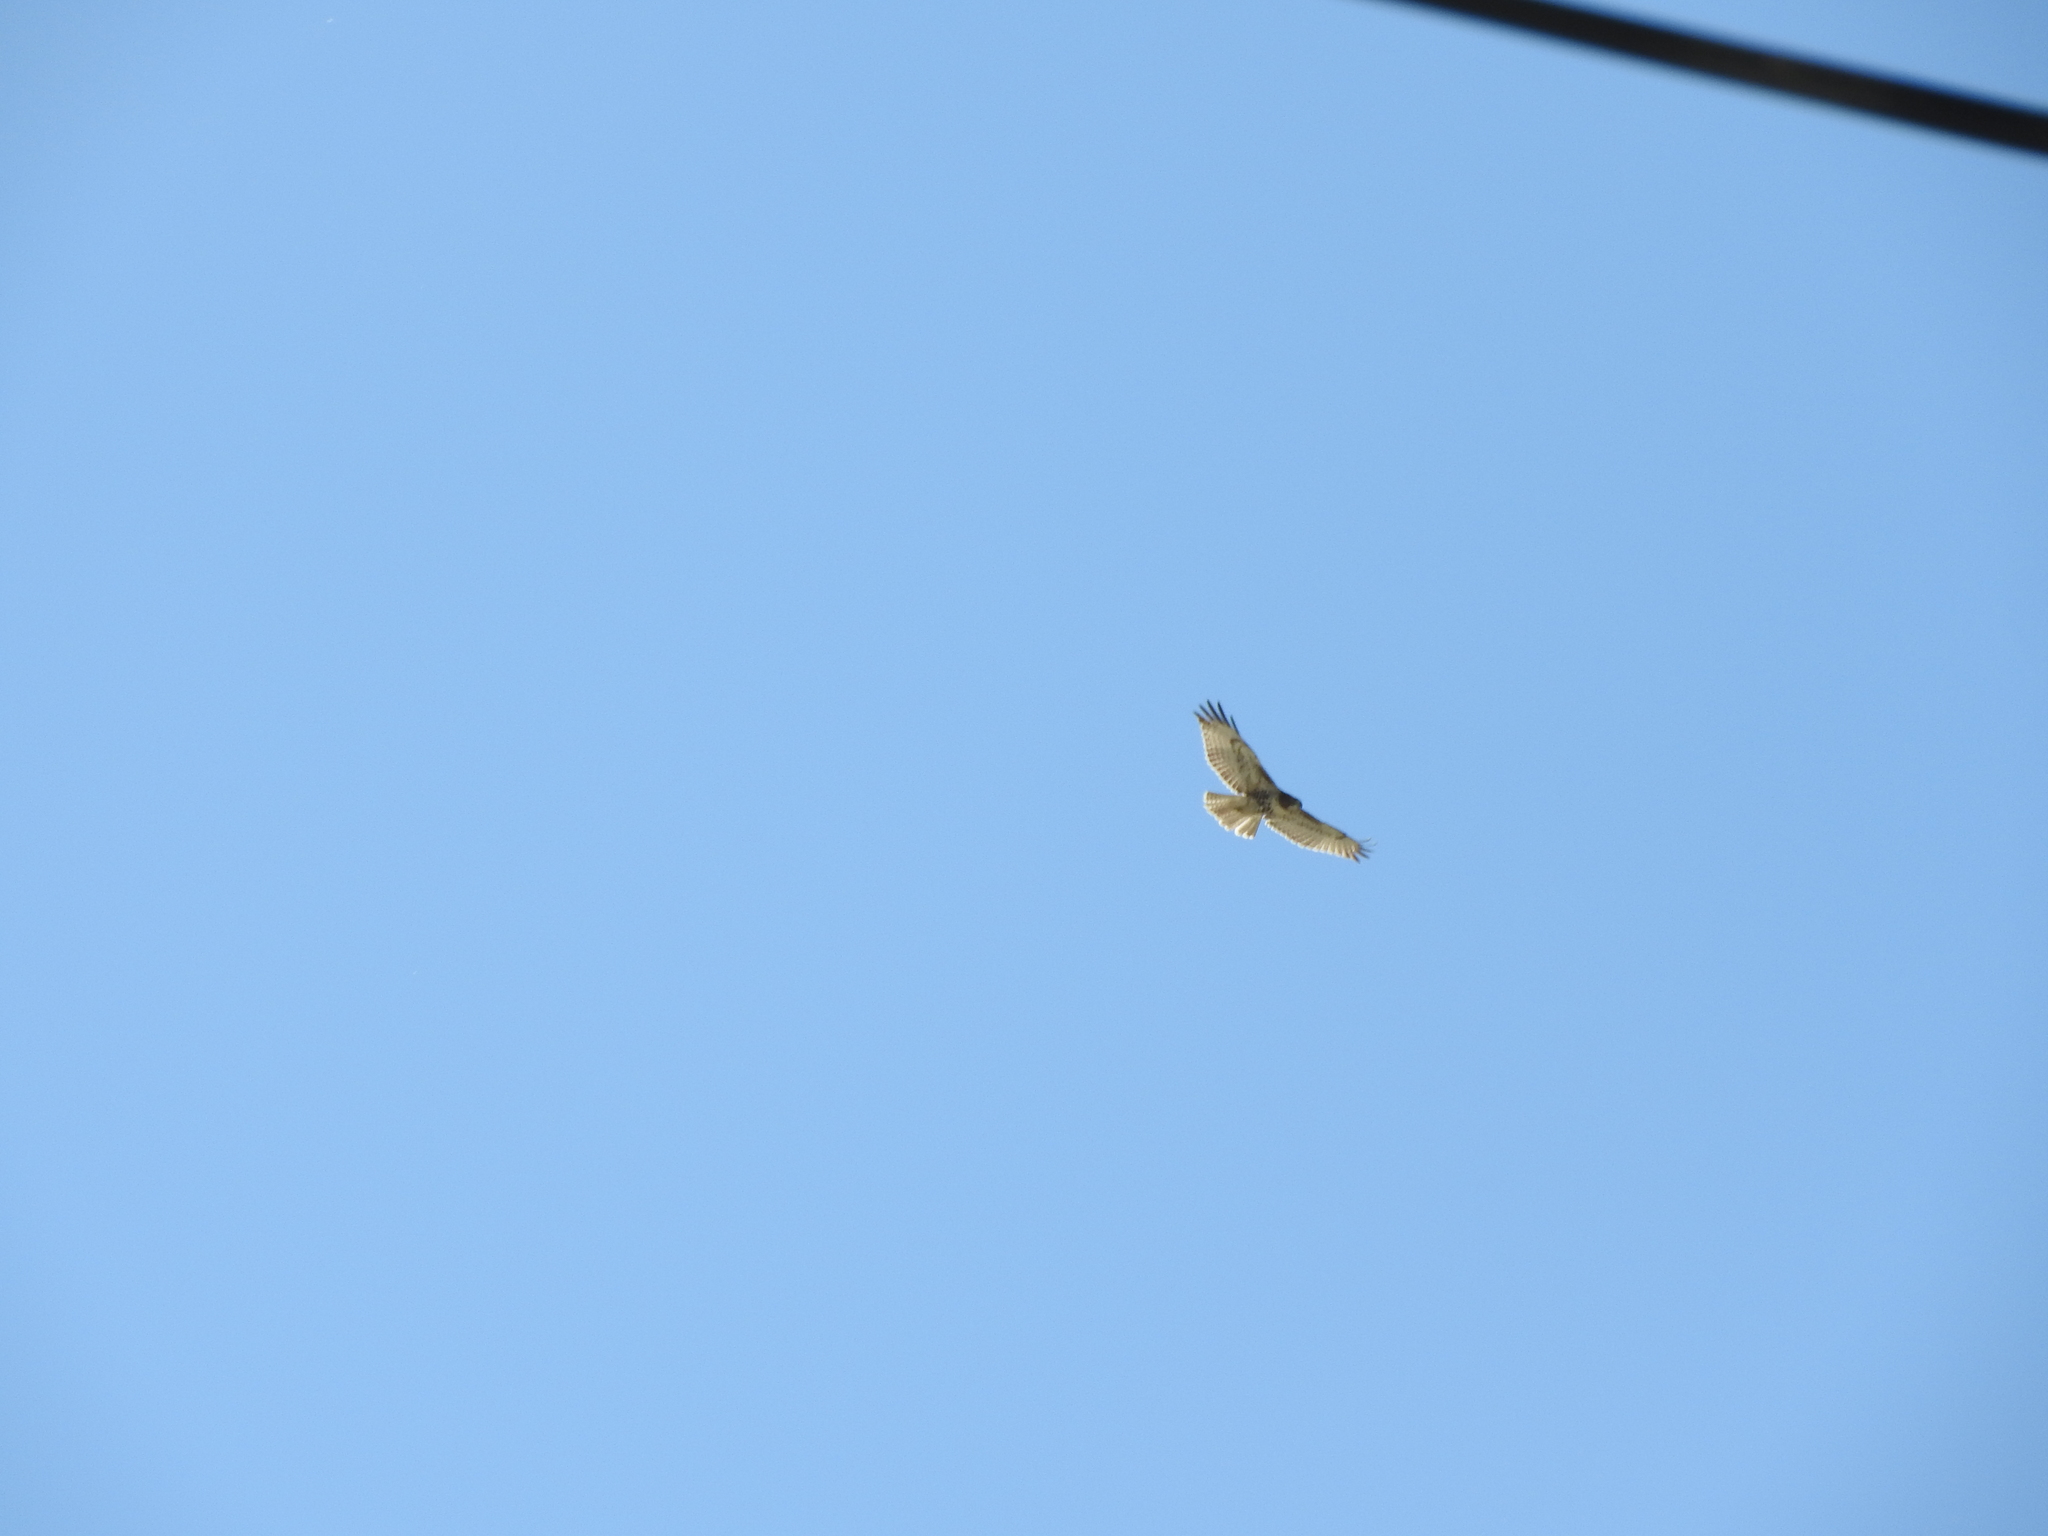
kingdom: Animalia
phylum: Chordata
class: Aves
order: Accipitriformes
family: Accipitridae
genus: Buteo
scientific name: Buteo jamaicensis
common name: Red-tailed hawk
